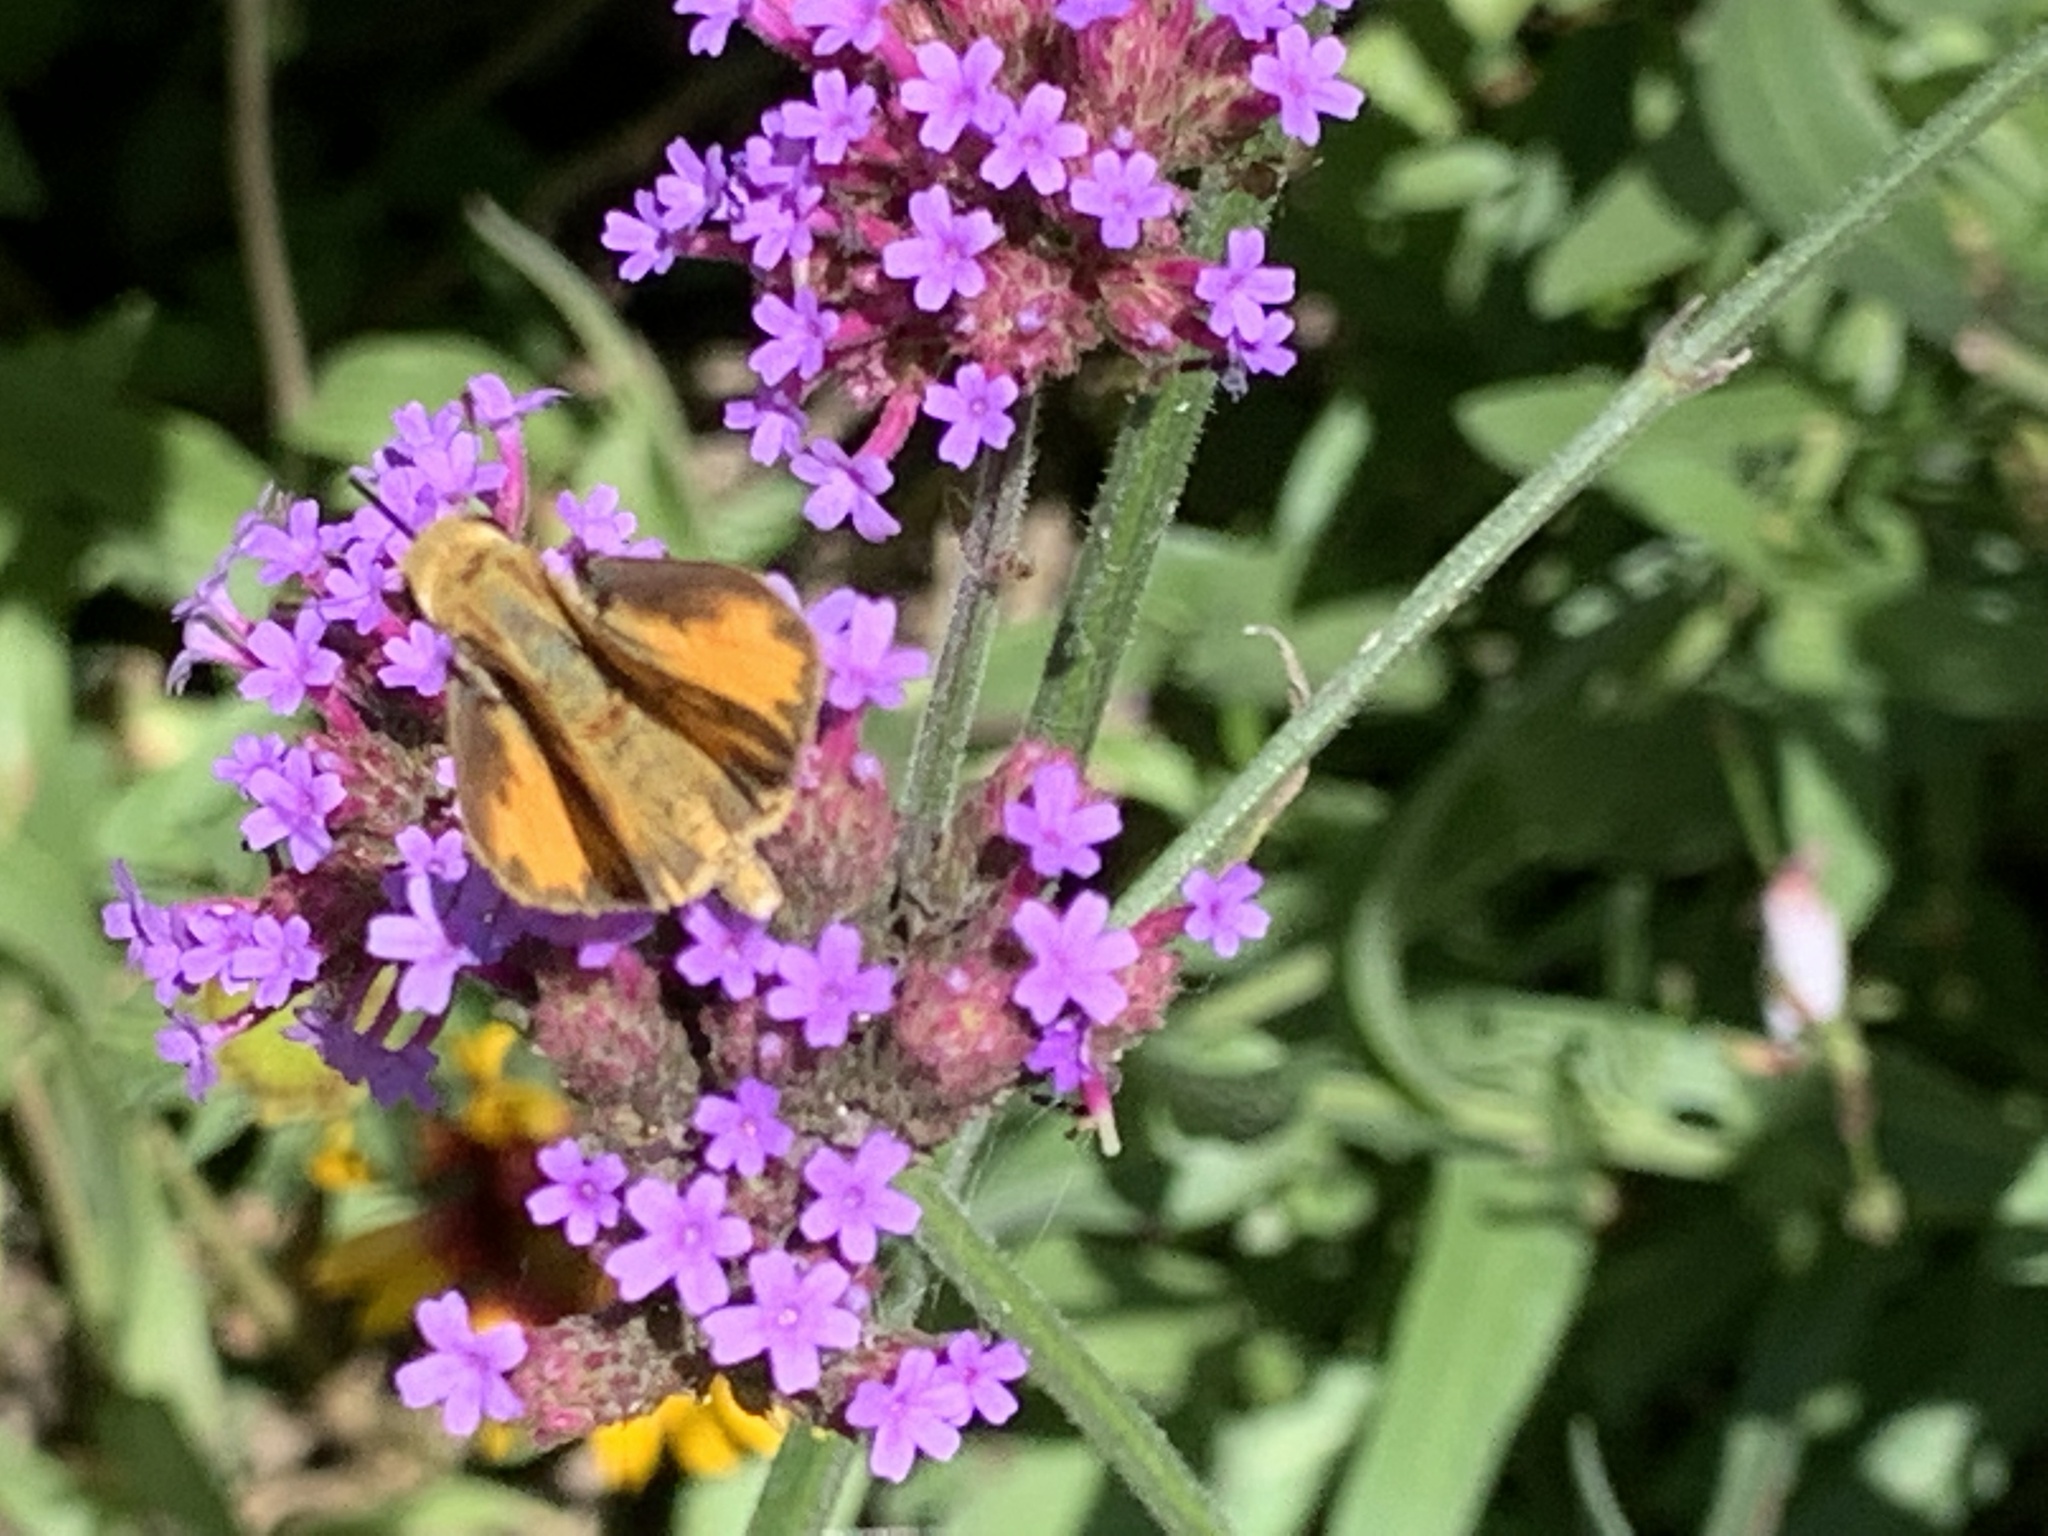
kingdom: Animalia
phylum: Arthropoda
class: Insecta
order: Lepidoptera
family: Hesperiidae
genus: Hylephila
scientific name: Hylephila phyleus
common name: Fiery skipper
